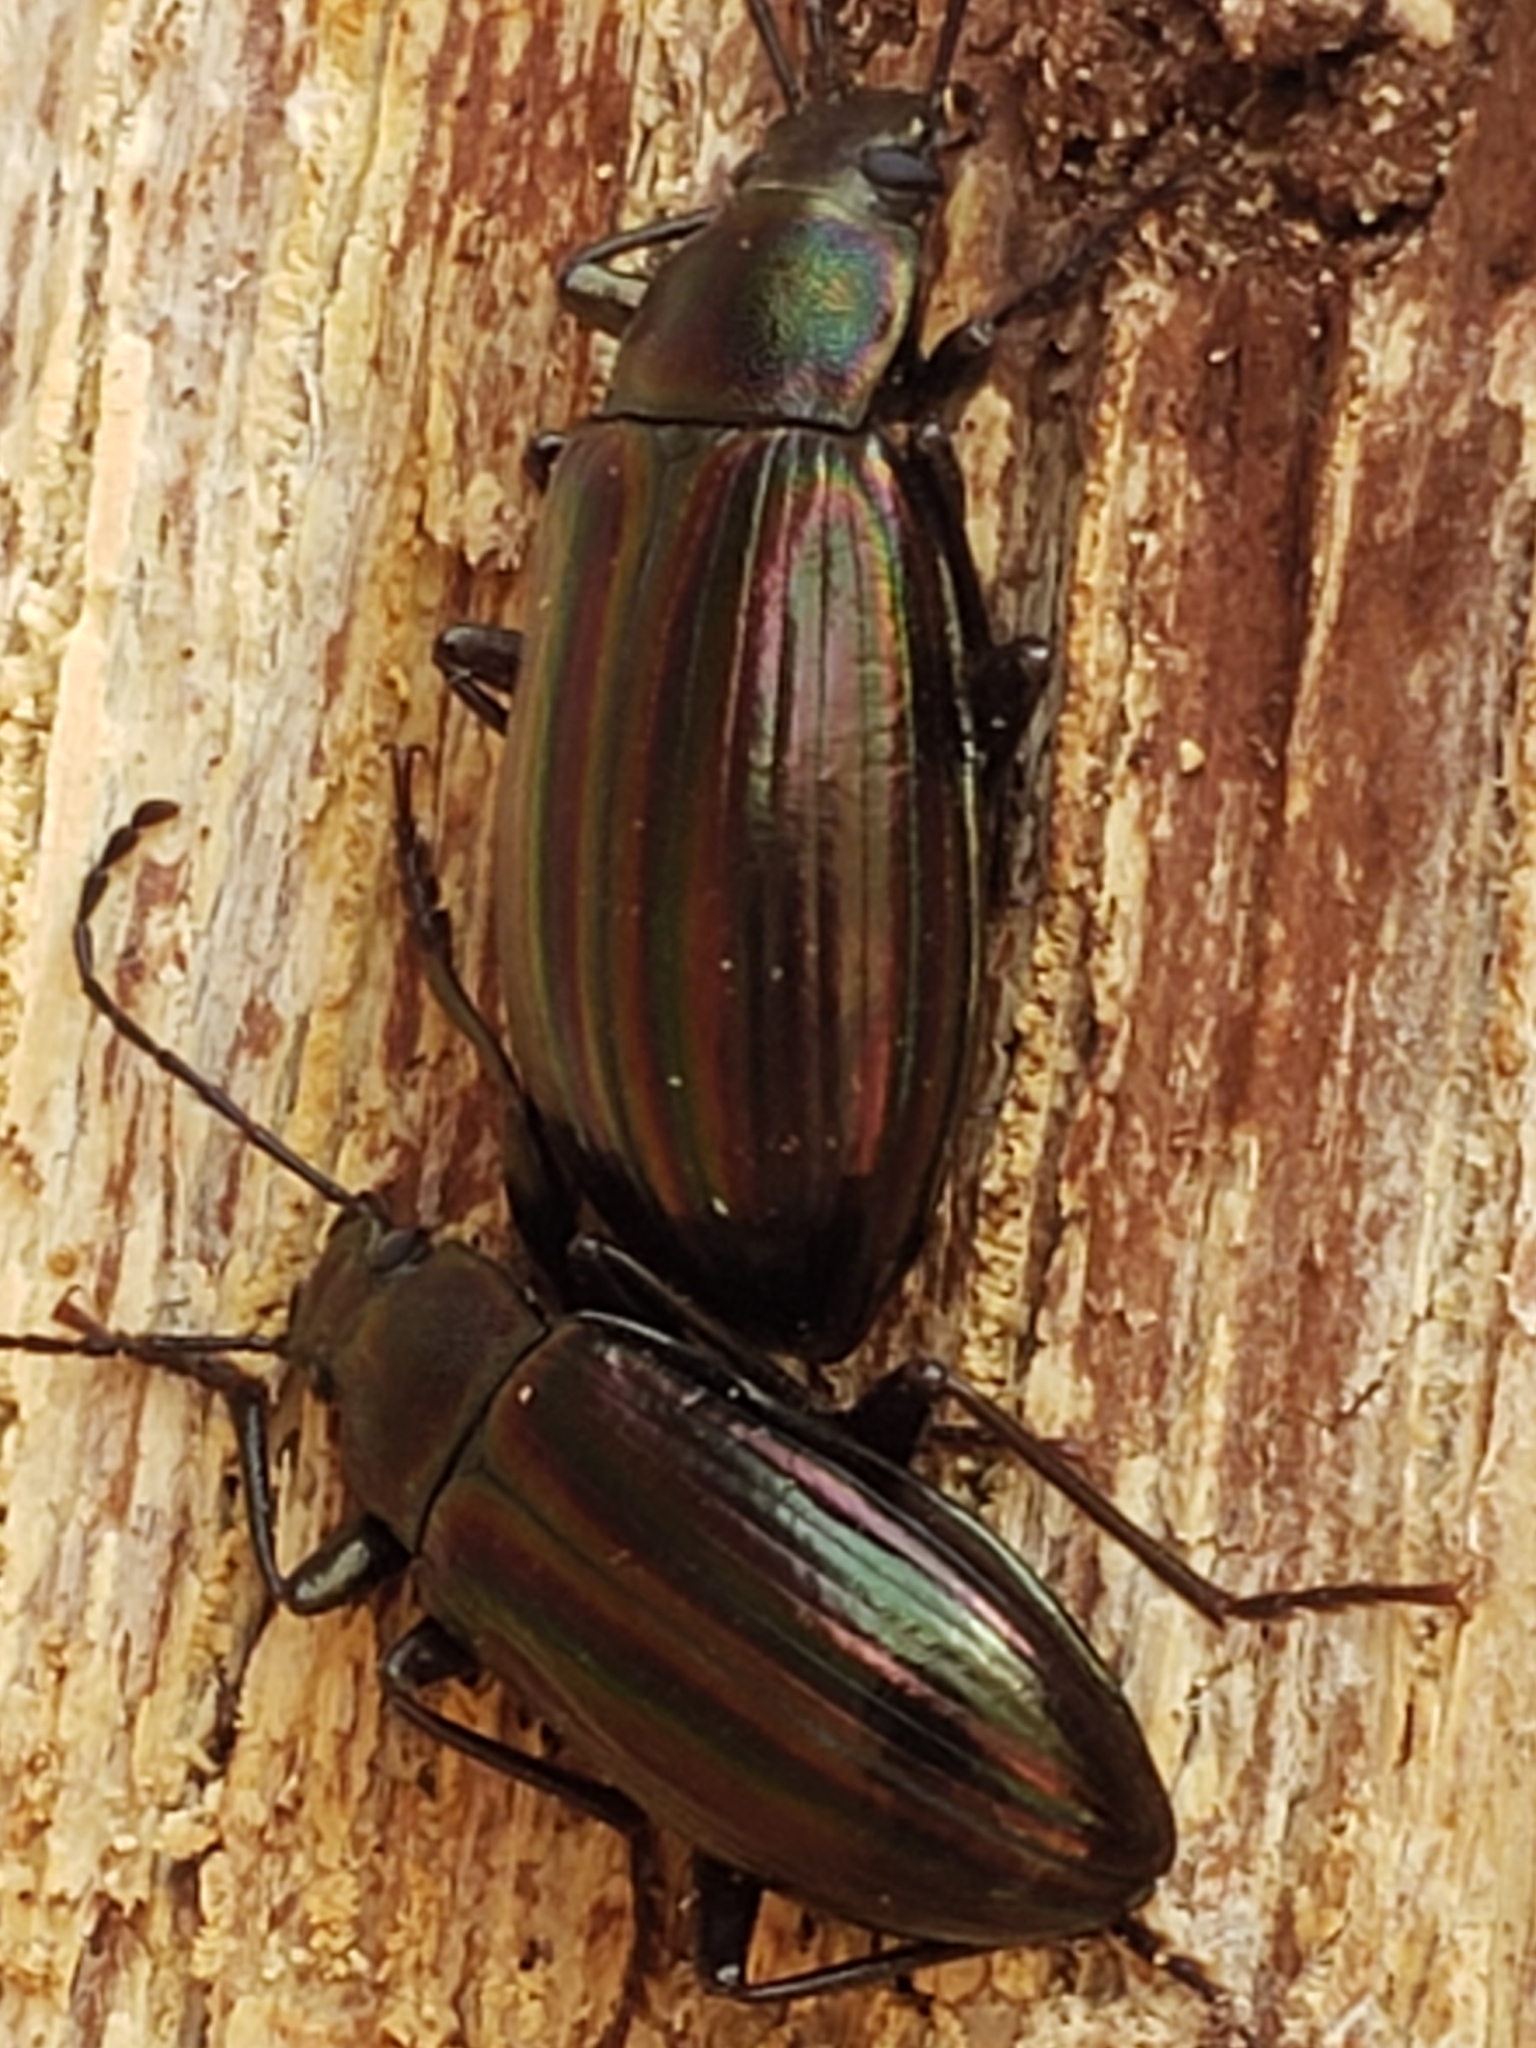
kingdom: Animalia
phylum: Arthropoda
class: Insecta
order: Coleoptera
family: Tenebrionidae
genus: Tarpela
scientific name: Tarpela micans
